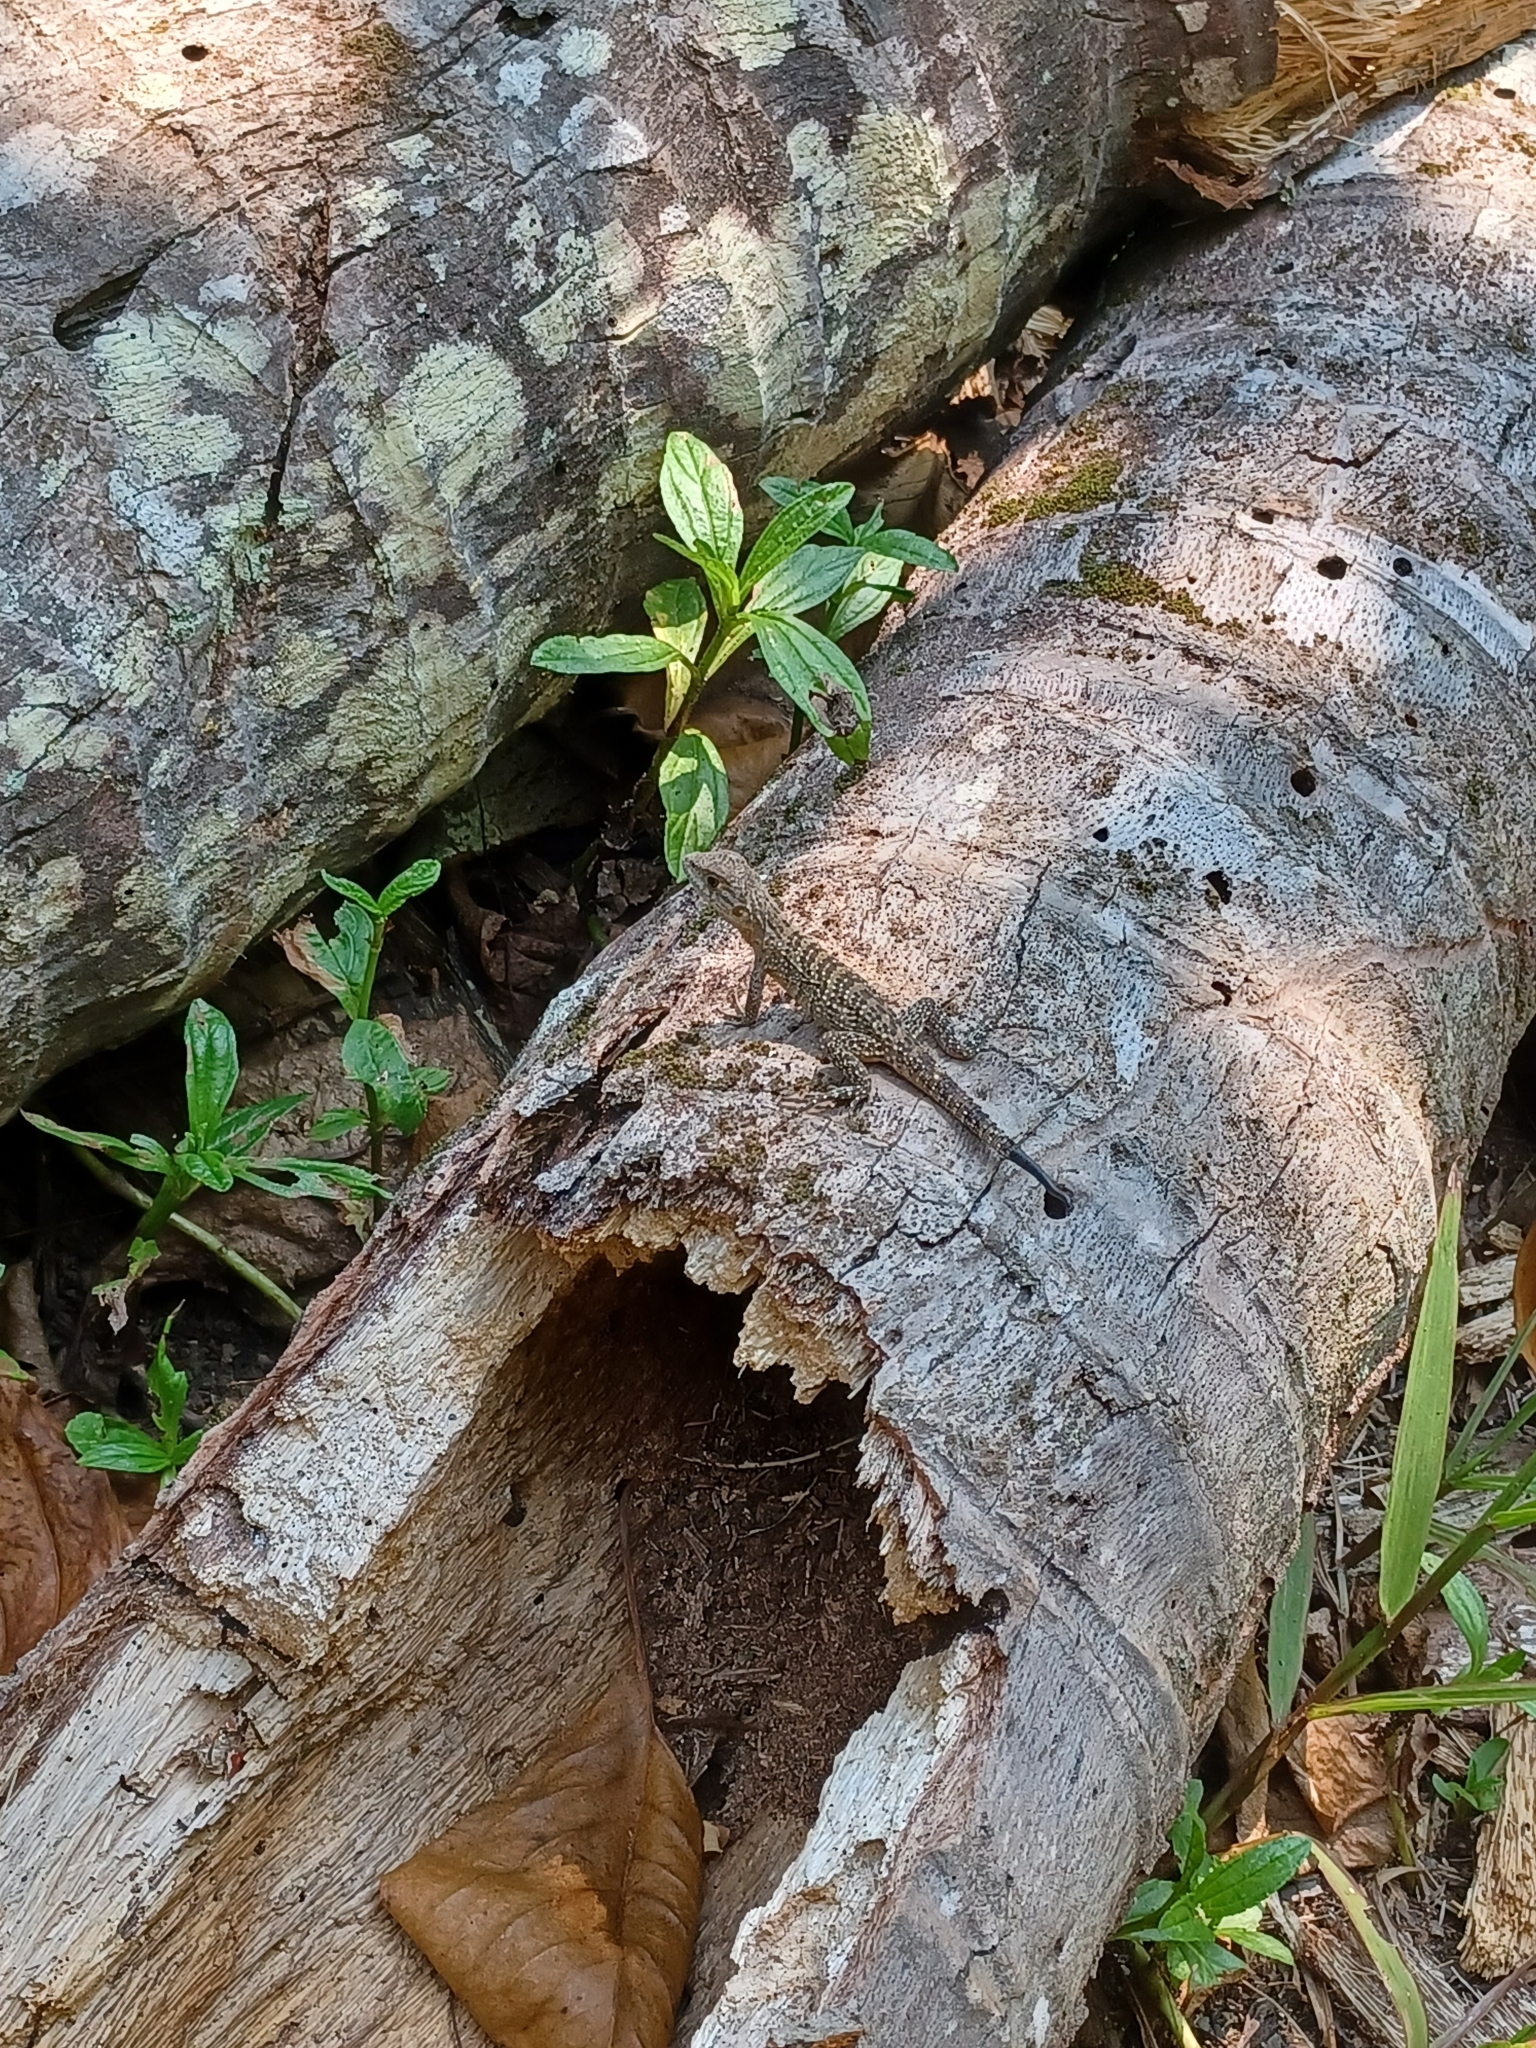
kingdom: Animalia
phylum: Chordata
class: Squamata
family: Iguanidae
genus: Ctenosaura
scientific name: Ctenosaura similis
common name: Black spiny-tailed iguana
